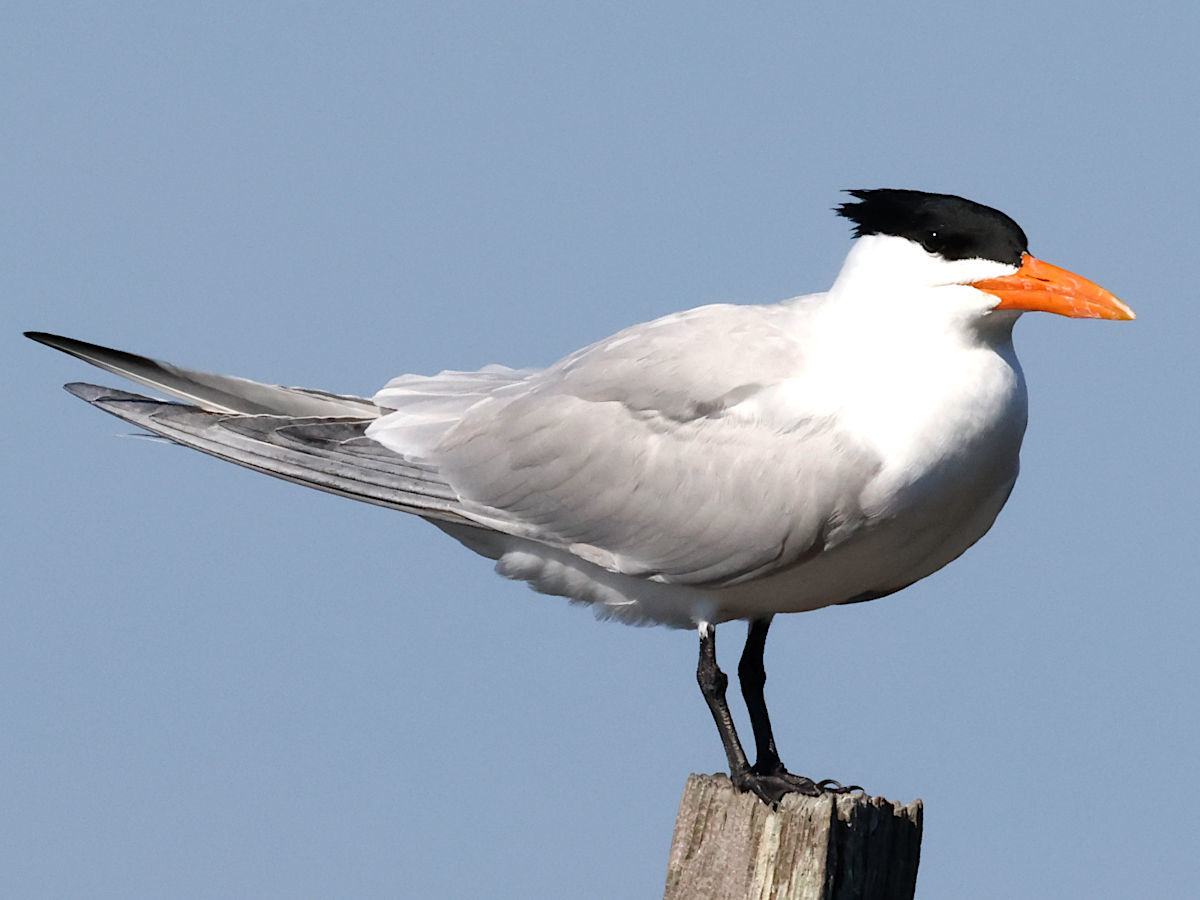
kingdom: Animalia
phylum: Chordata
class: Aves
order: Charadriiformes
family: Laridae
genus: Thalasseus
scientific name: Thalasseus maximus
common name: Royal tern
